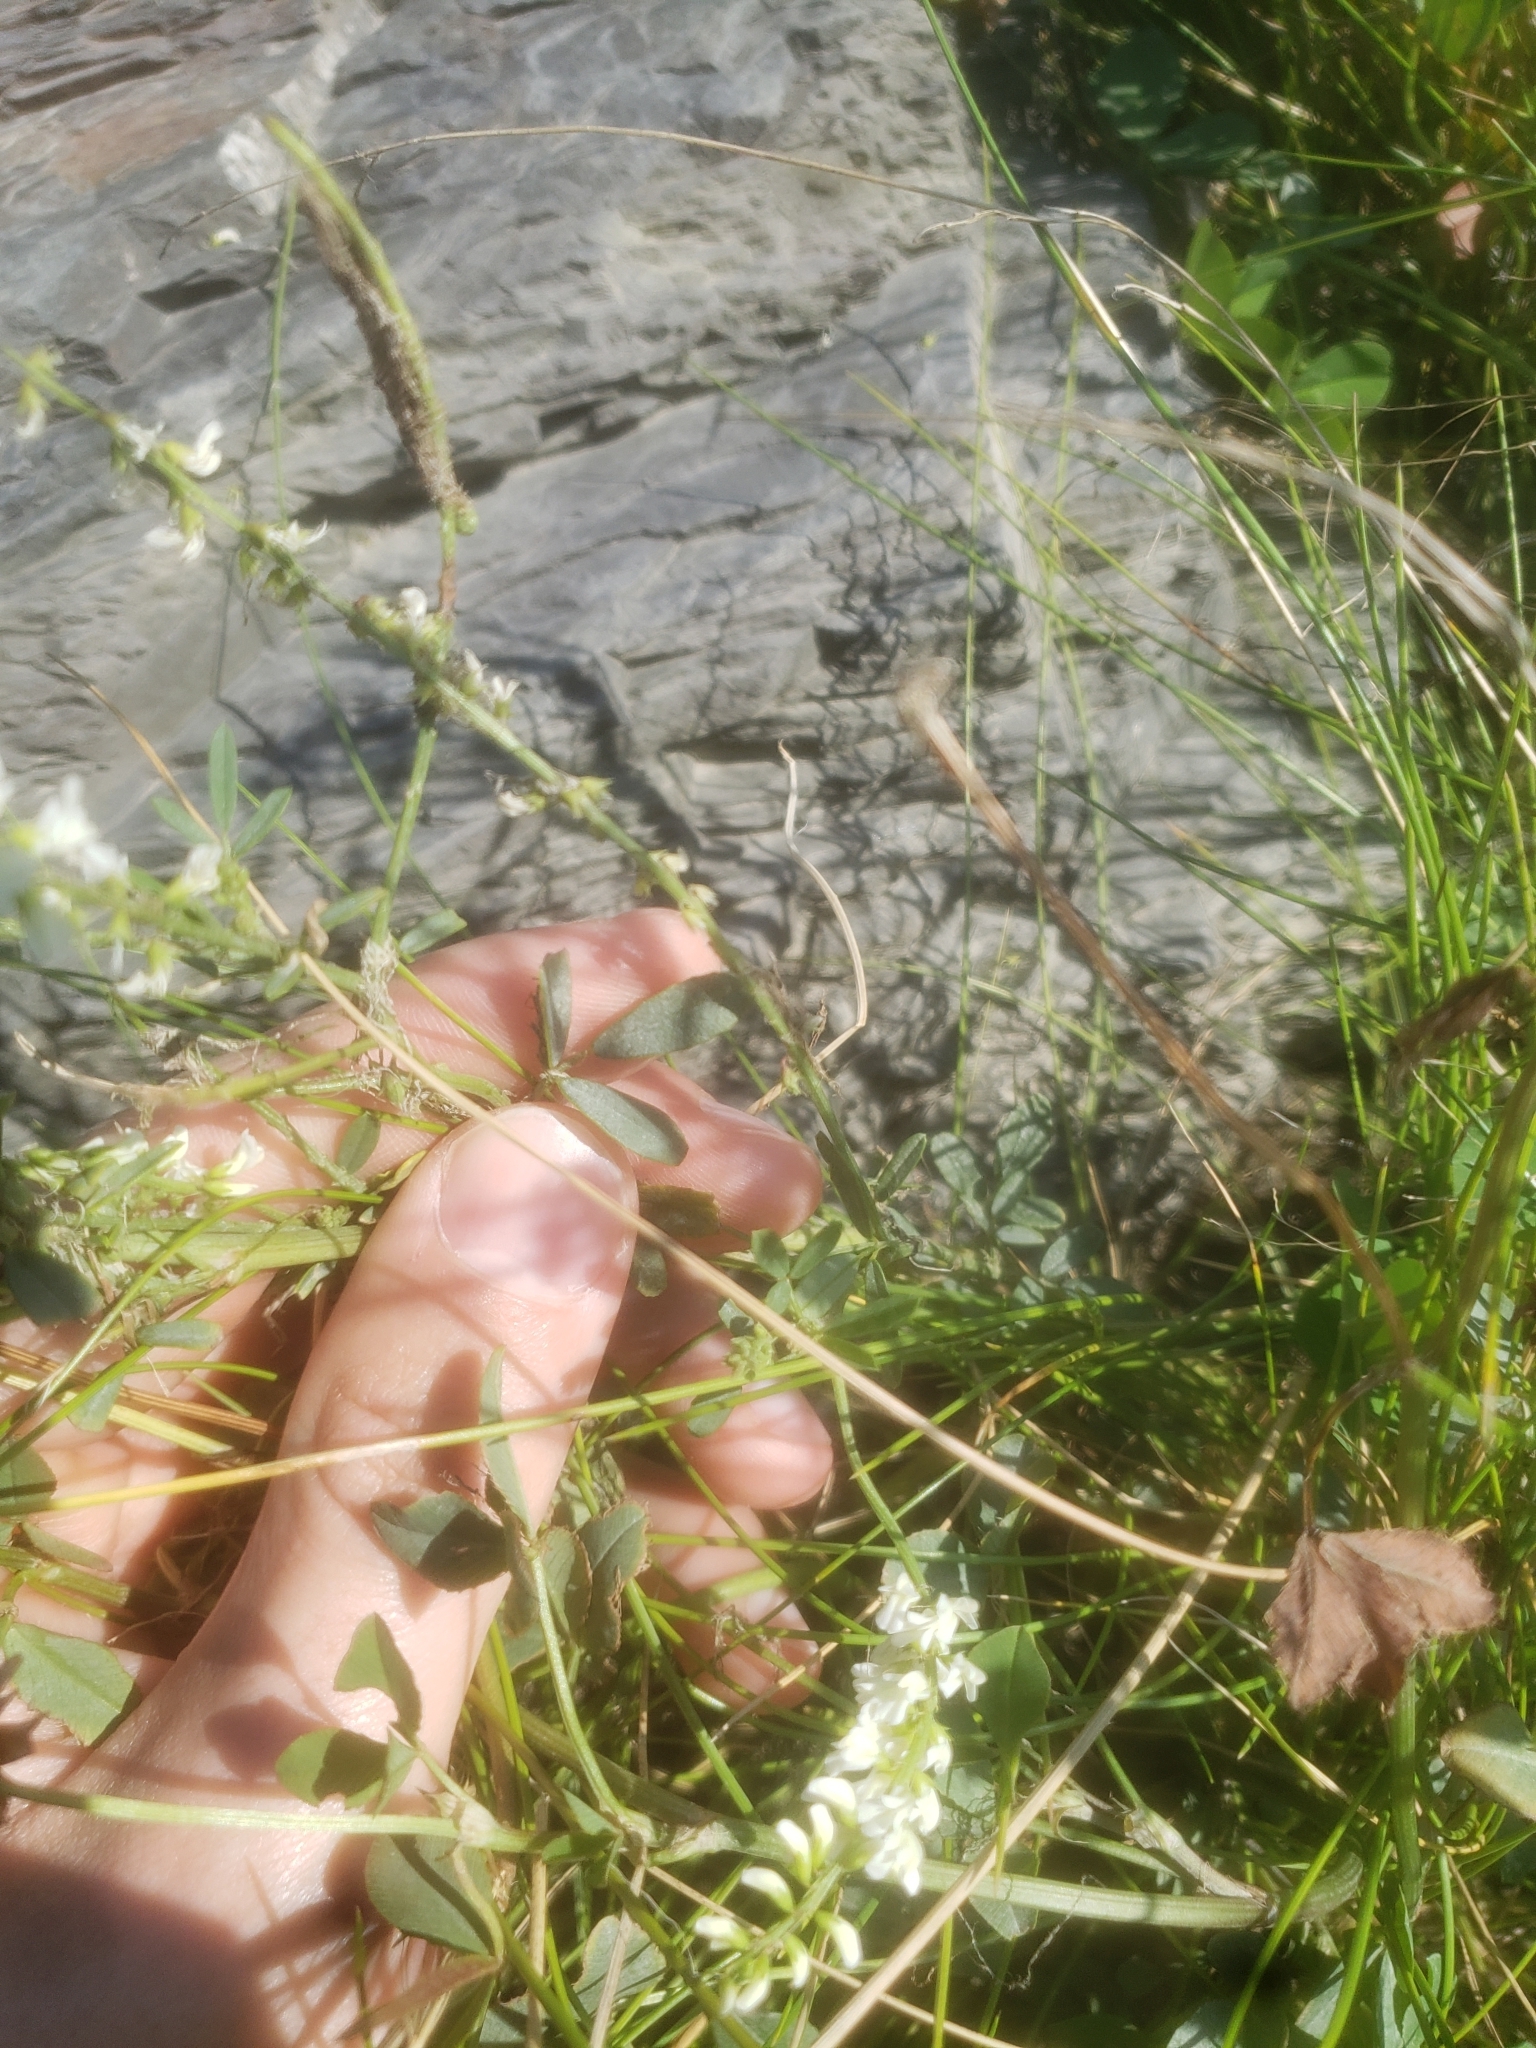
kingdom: Plantae
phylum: Tracheophyta
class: Magnoliopsida
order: Fabales
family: Fabaceae
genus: Melilotus
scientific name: Melilotus albus
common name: White melilot
